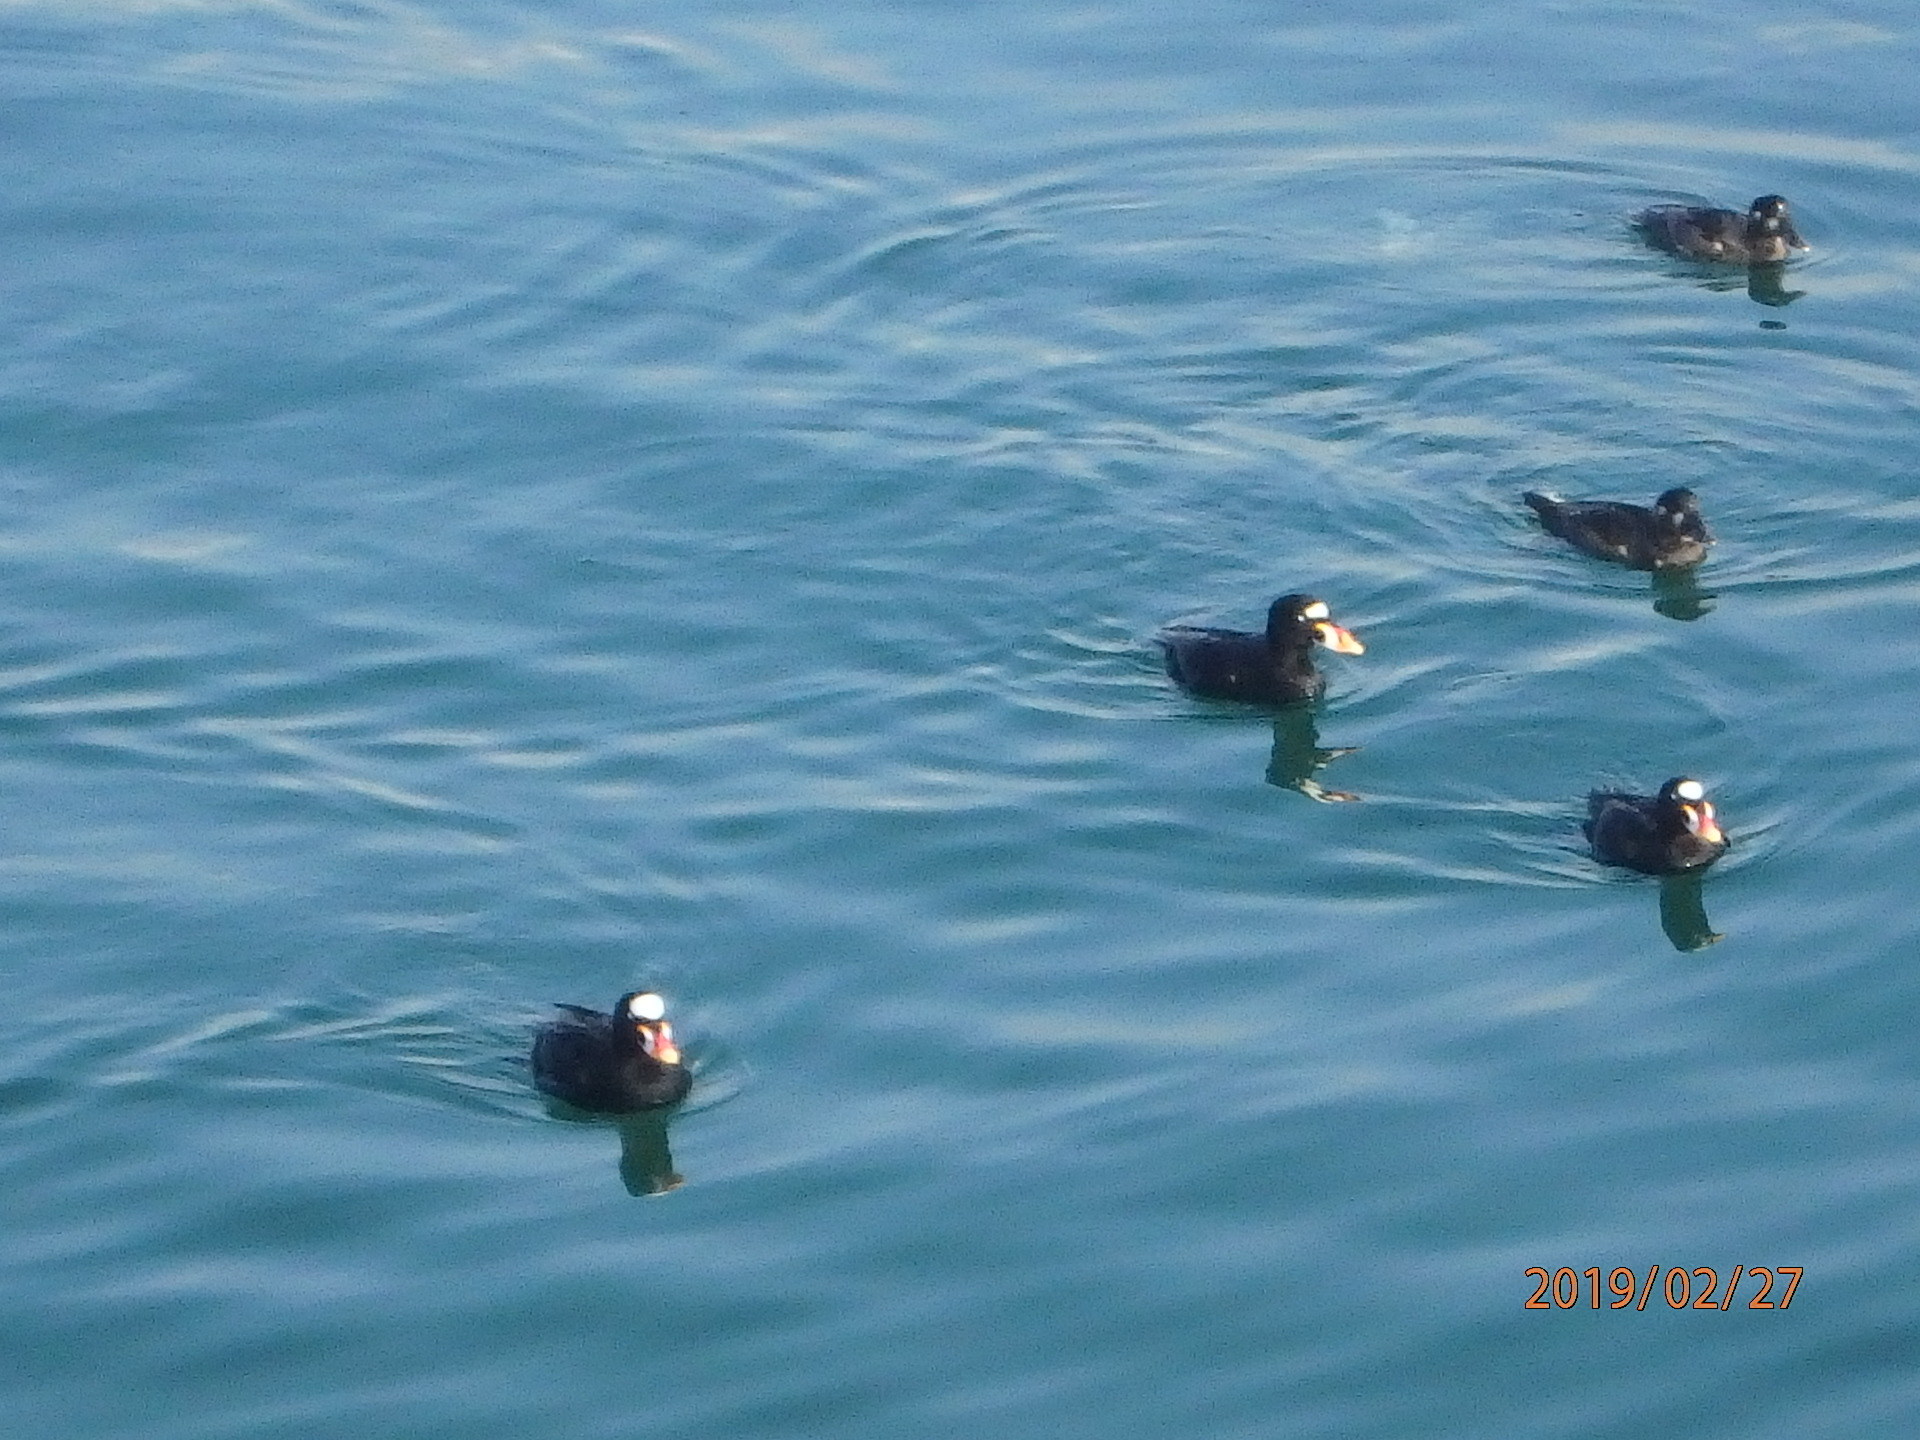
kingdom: Animalia
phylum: Chordata
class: Aves
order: Anseriformes
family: Anatidae
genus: Melanitta
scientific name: Melanitta perspicillata
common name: Surf scoter
